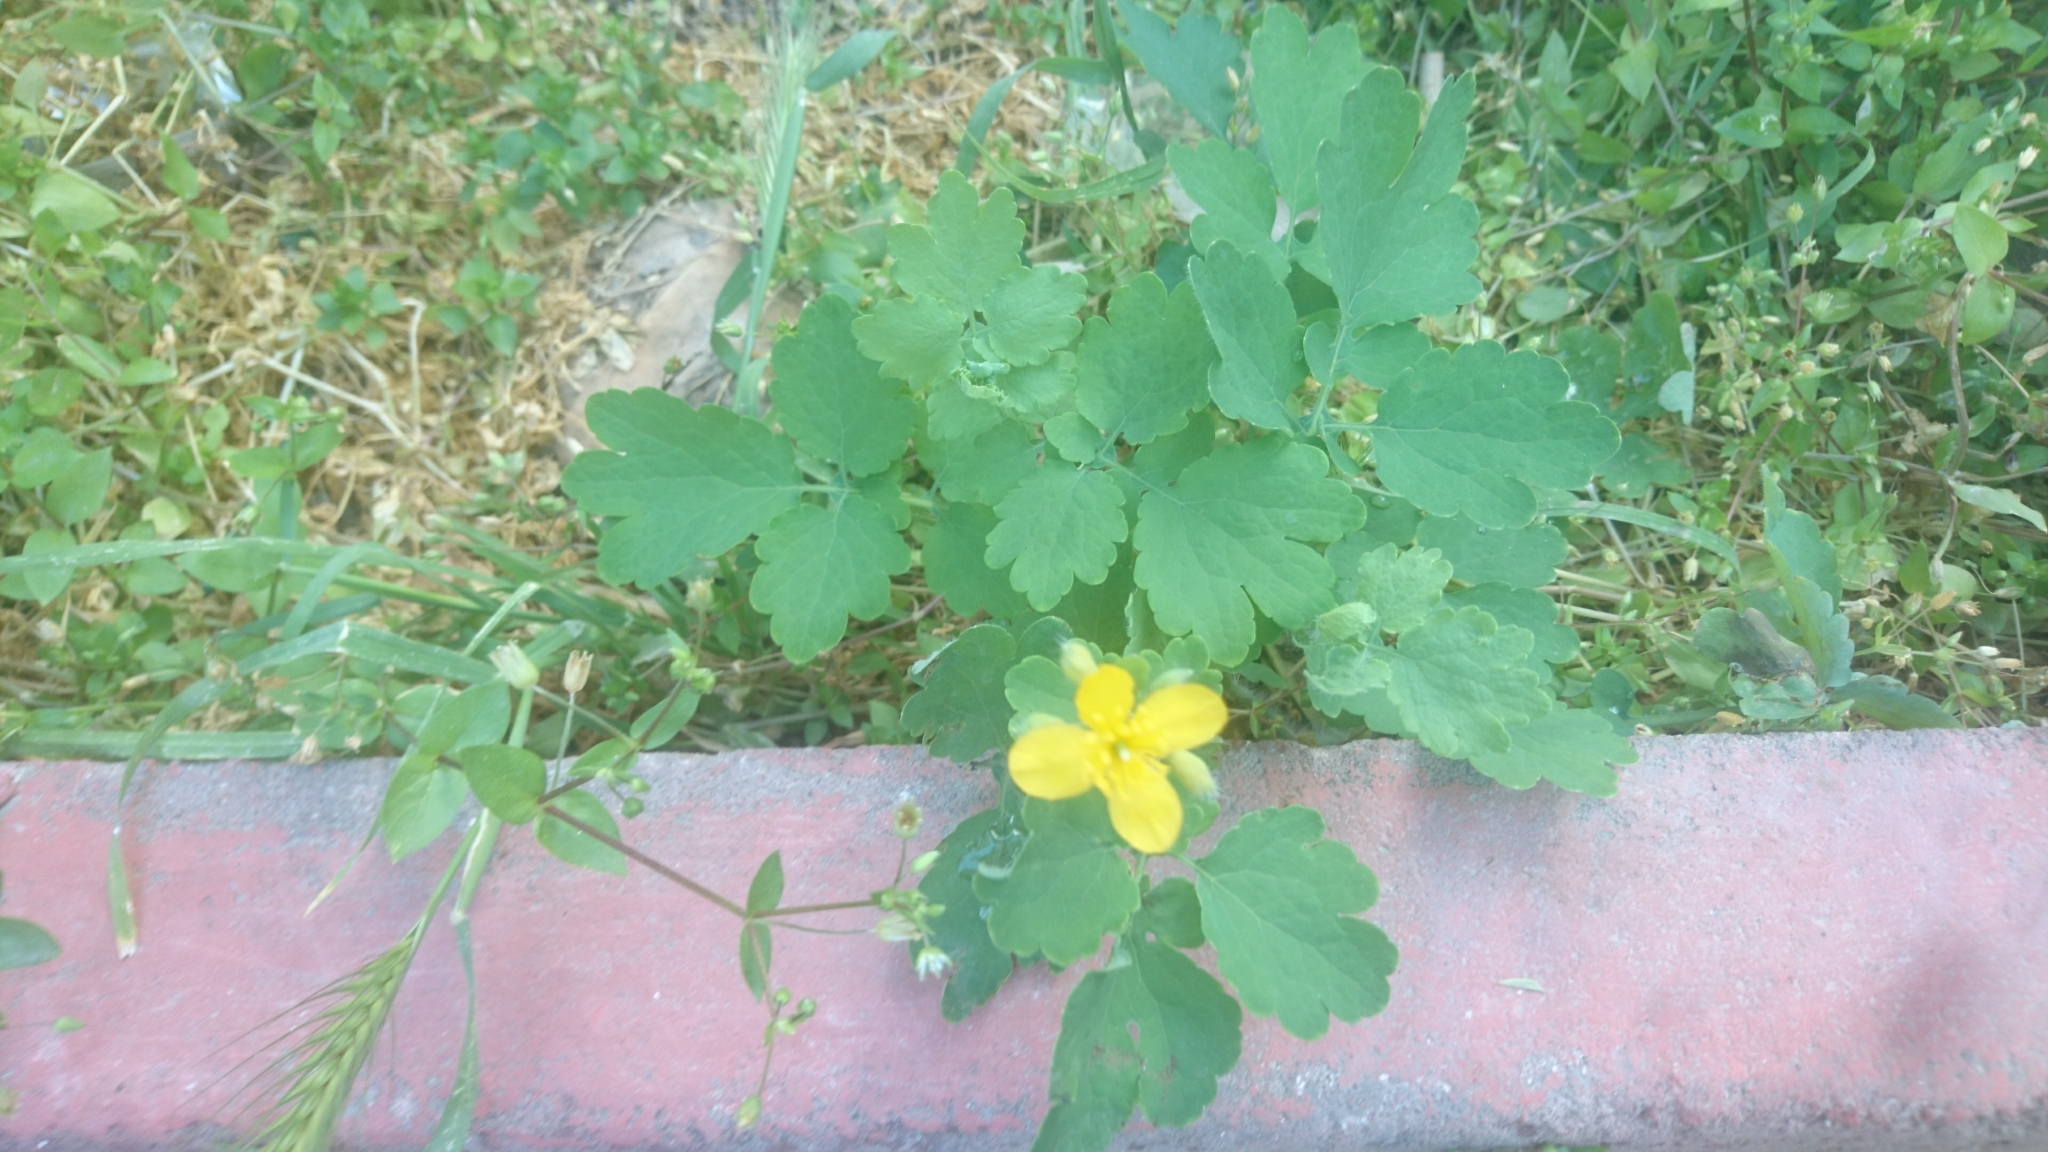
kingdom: Plantae
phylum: Tracheophyta
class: Magnoliopsida
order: Ranunculales
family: Papaveraceae
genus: Chelidonium
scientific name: Chelidonium majus
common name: Greater celandine
